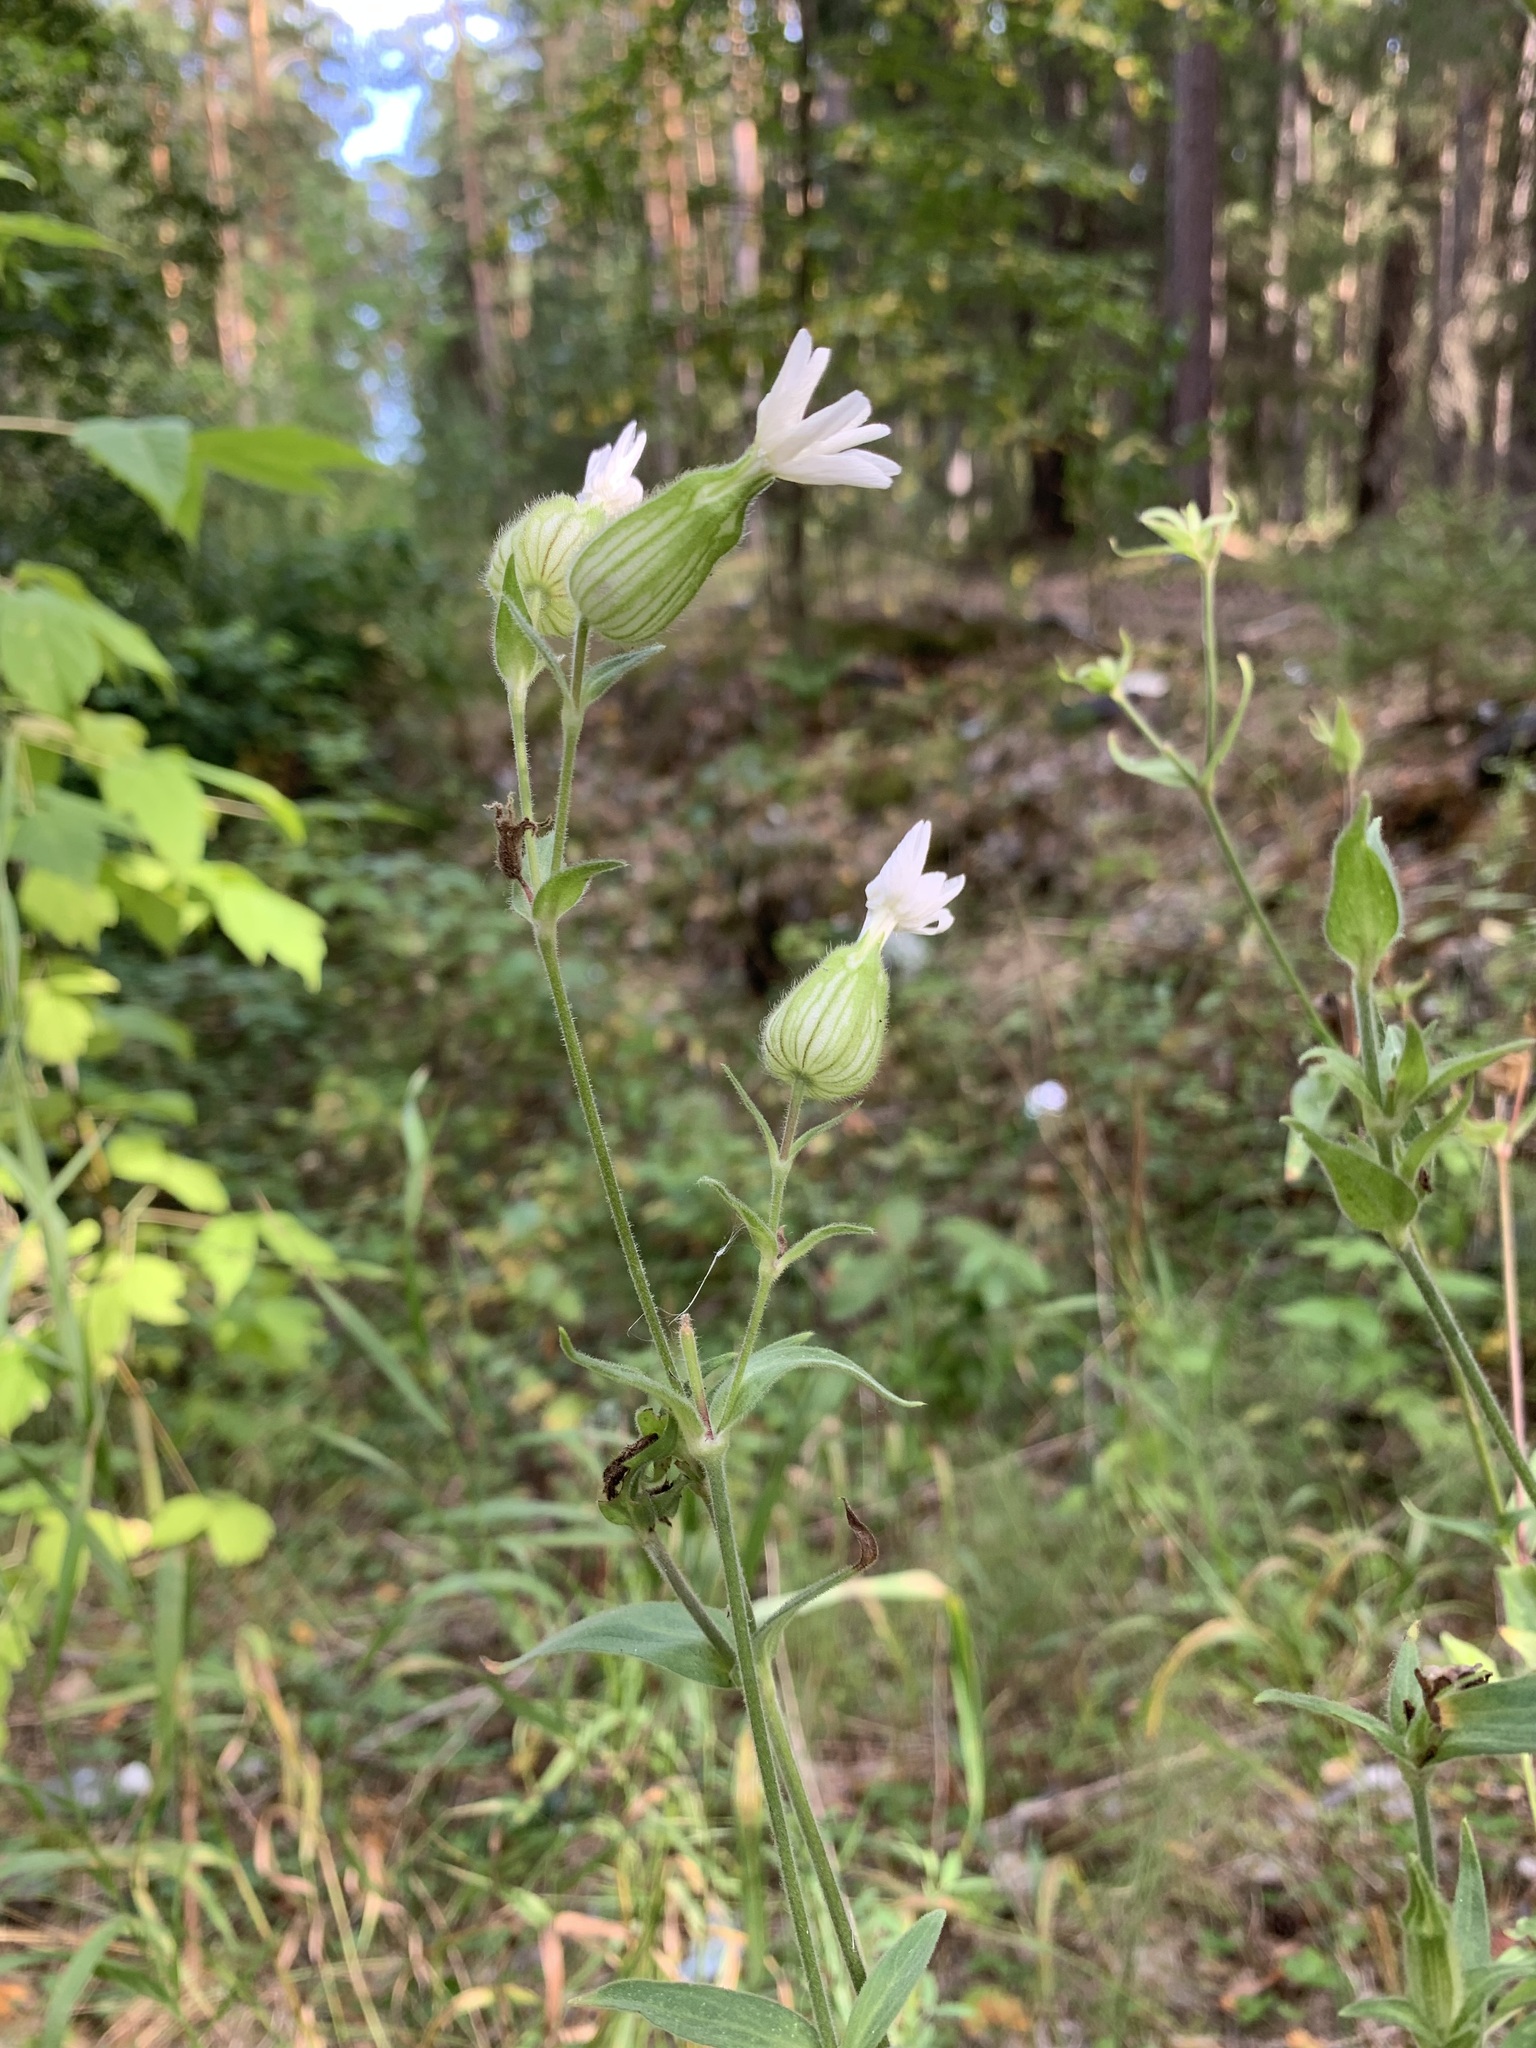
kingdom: Plantae
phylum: Tracheophyta
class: Magnoliopsida
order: Caryophyllales
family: Caryophyllaceae
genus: Silene
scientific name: Silene latifolia
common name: White campion
